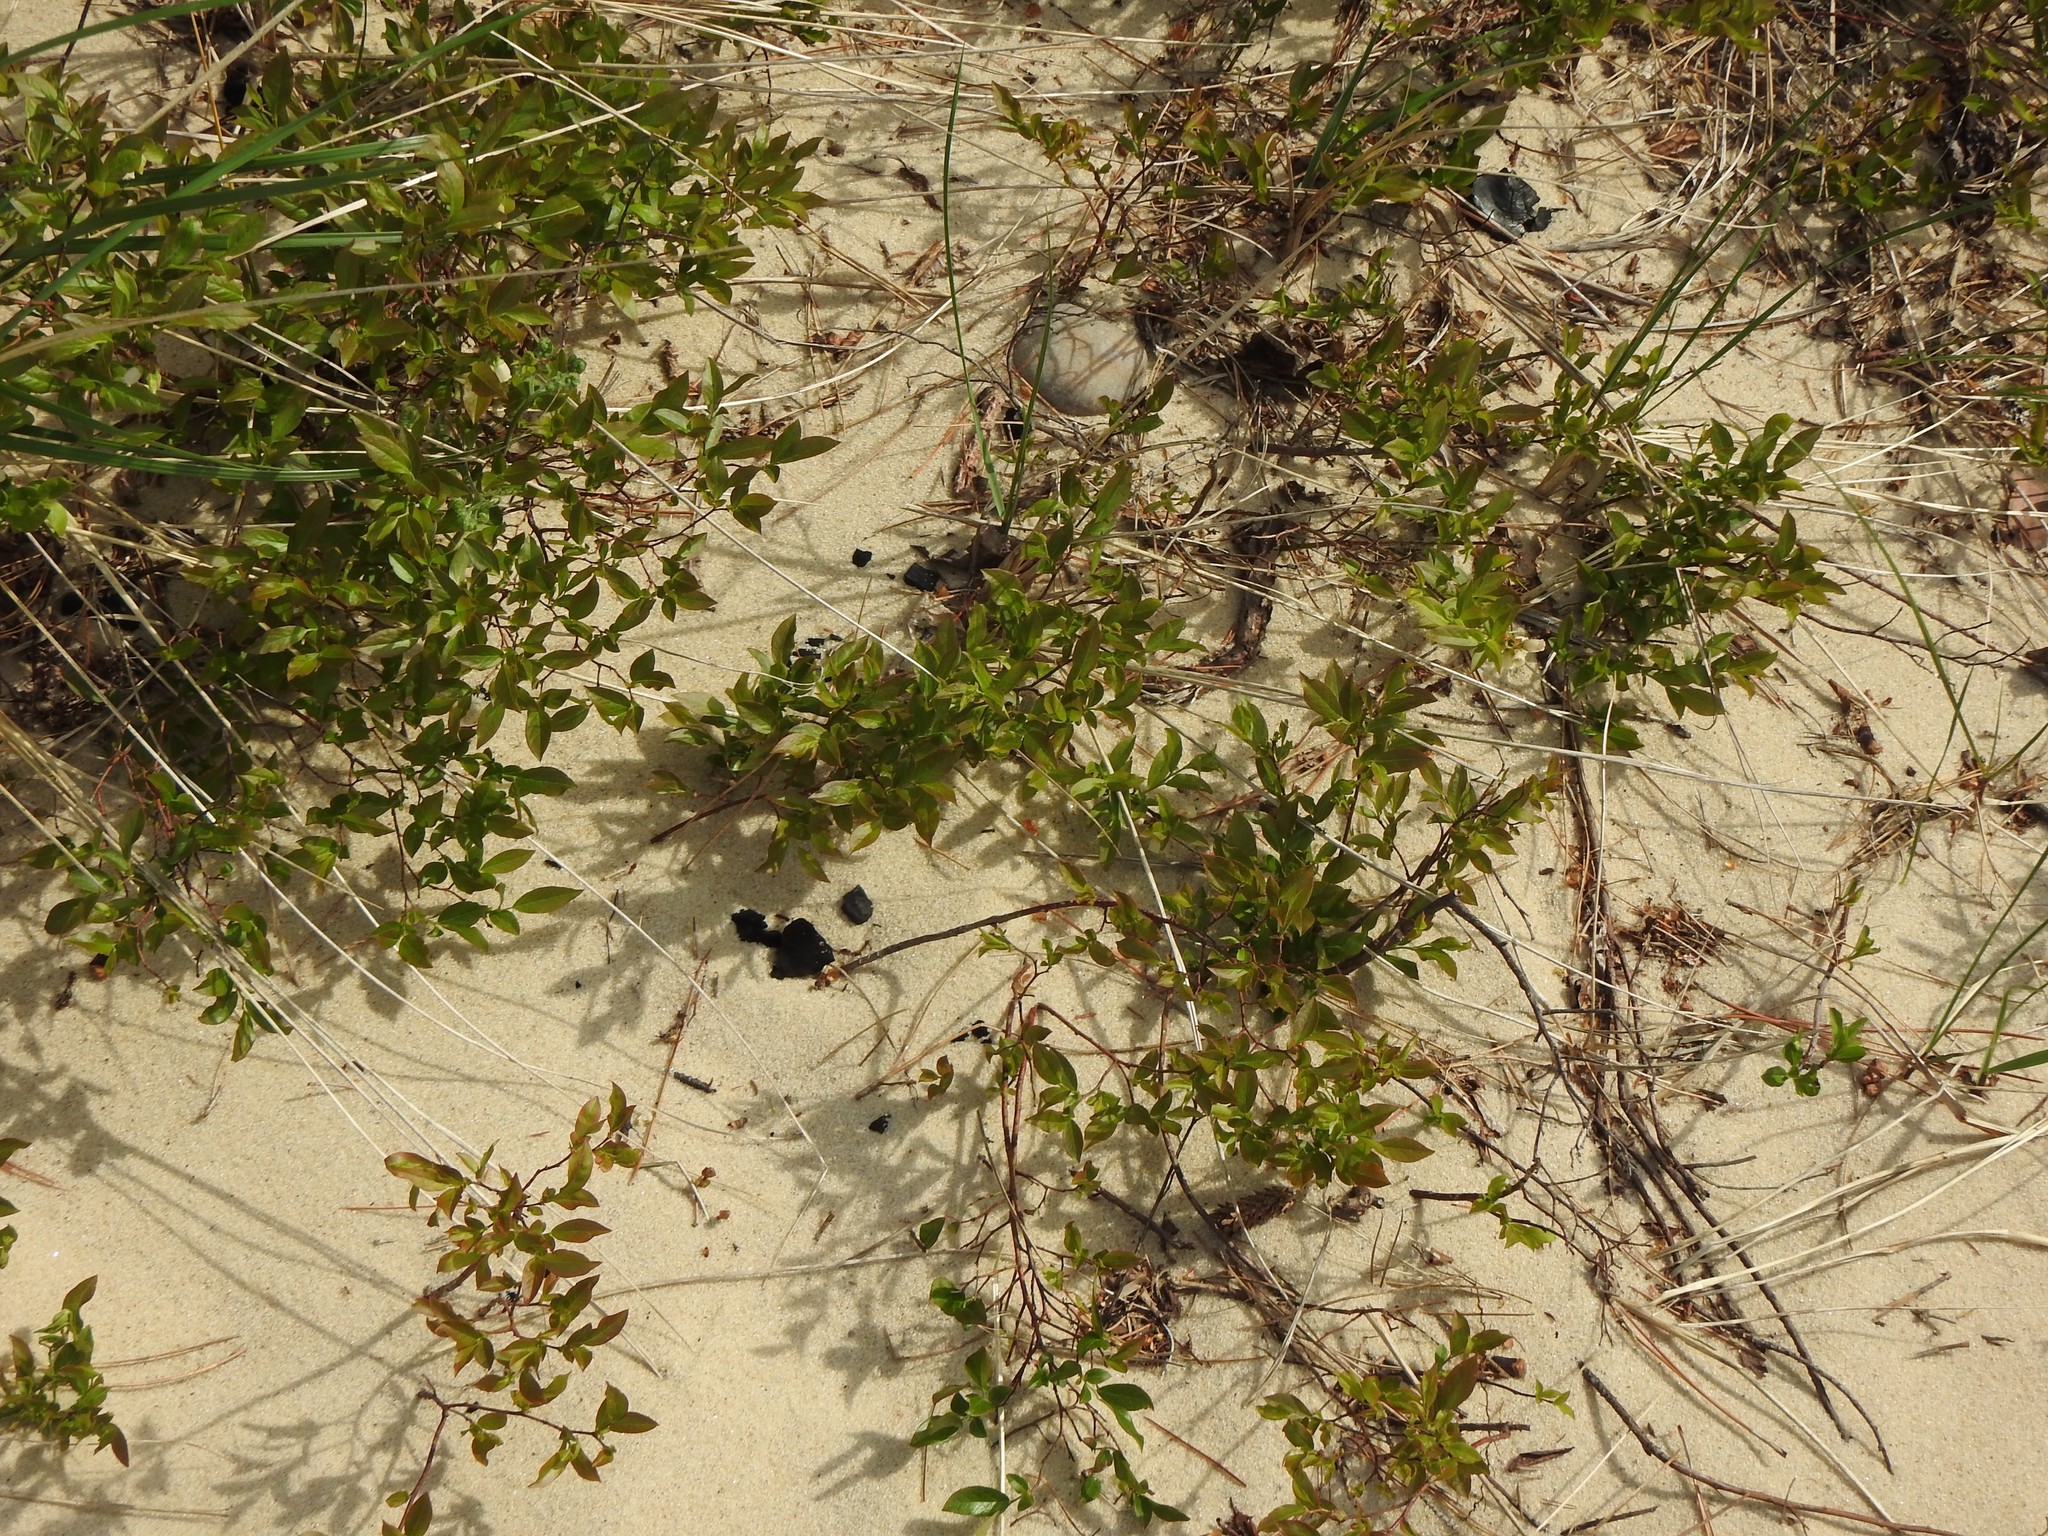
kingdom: Plantae
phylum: Tracheophyta
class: Magnoliopsida
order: Rosales
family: Rosaceae
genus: Prunus
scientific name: Prunus pumila
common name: Dwarf cherry
